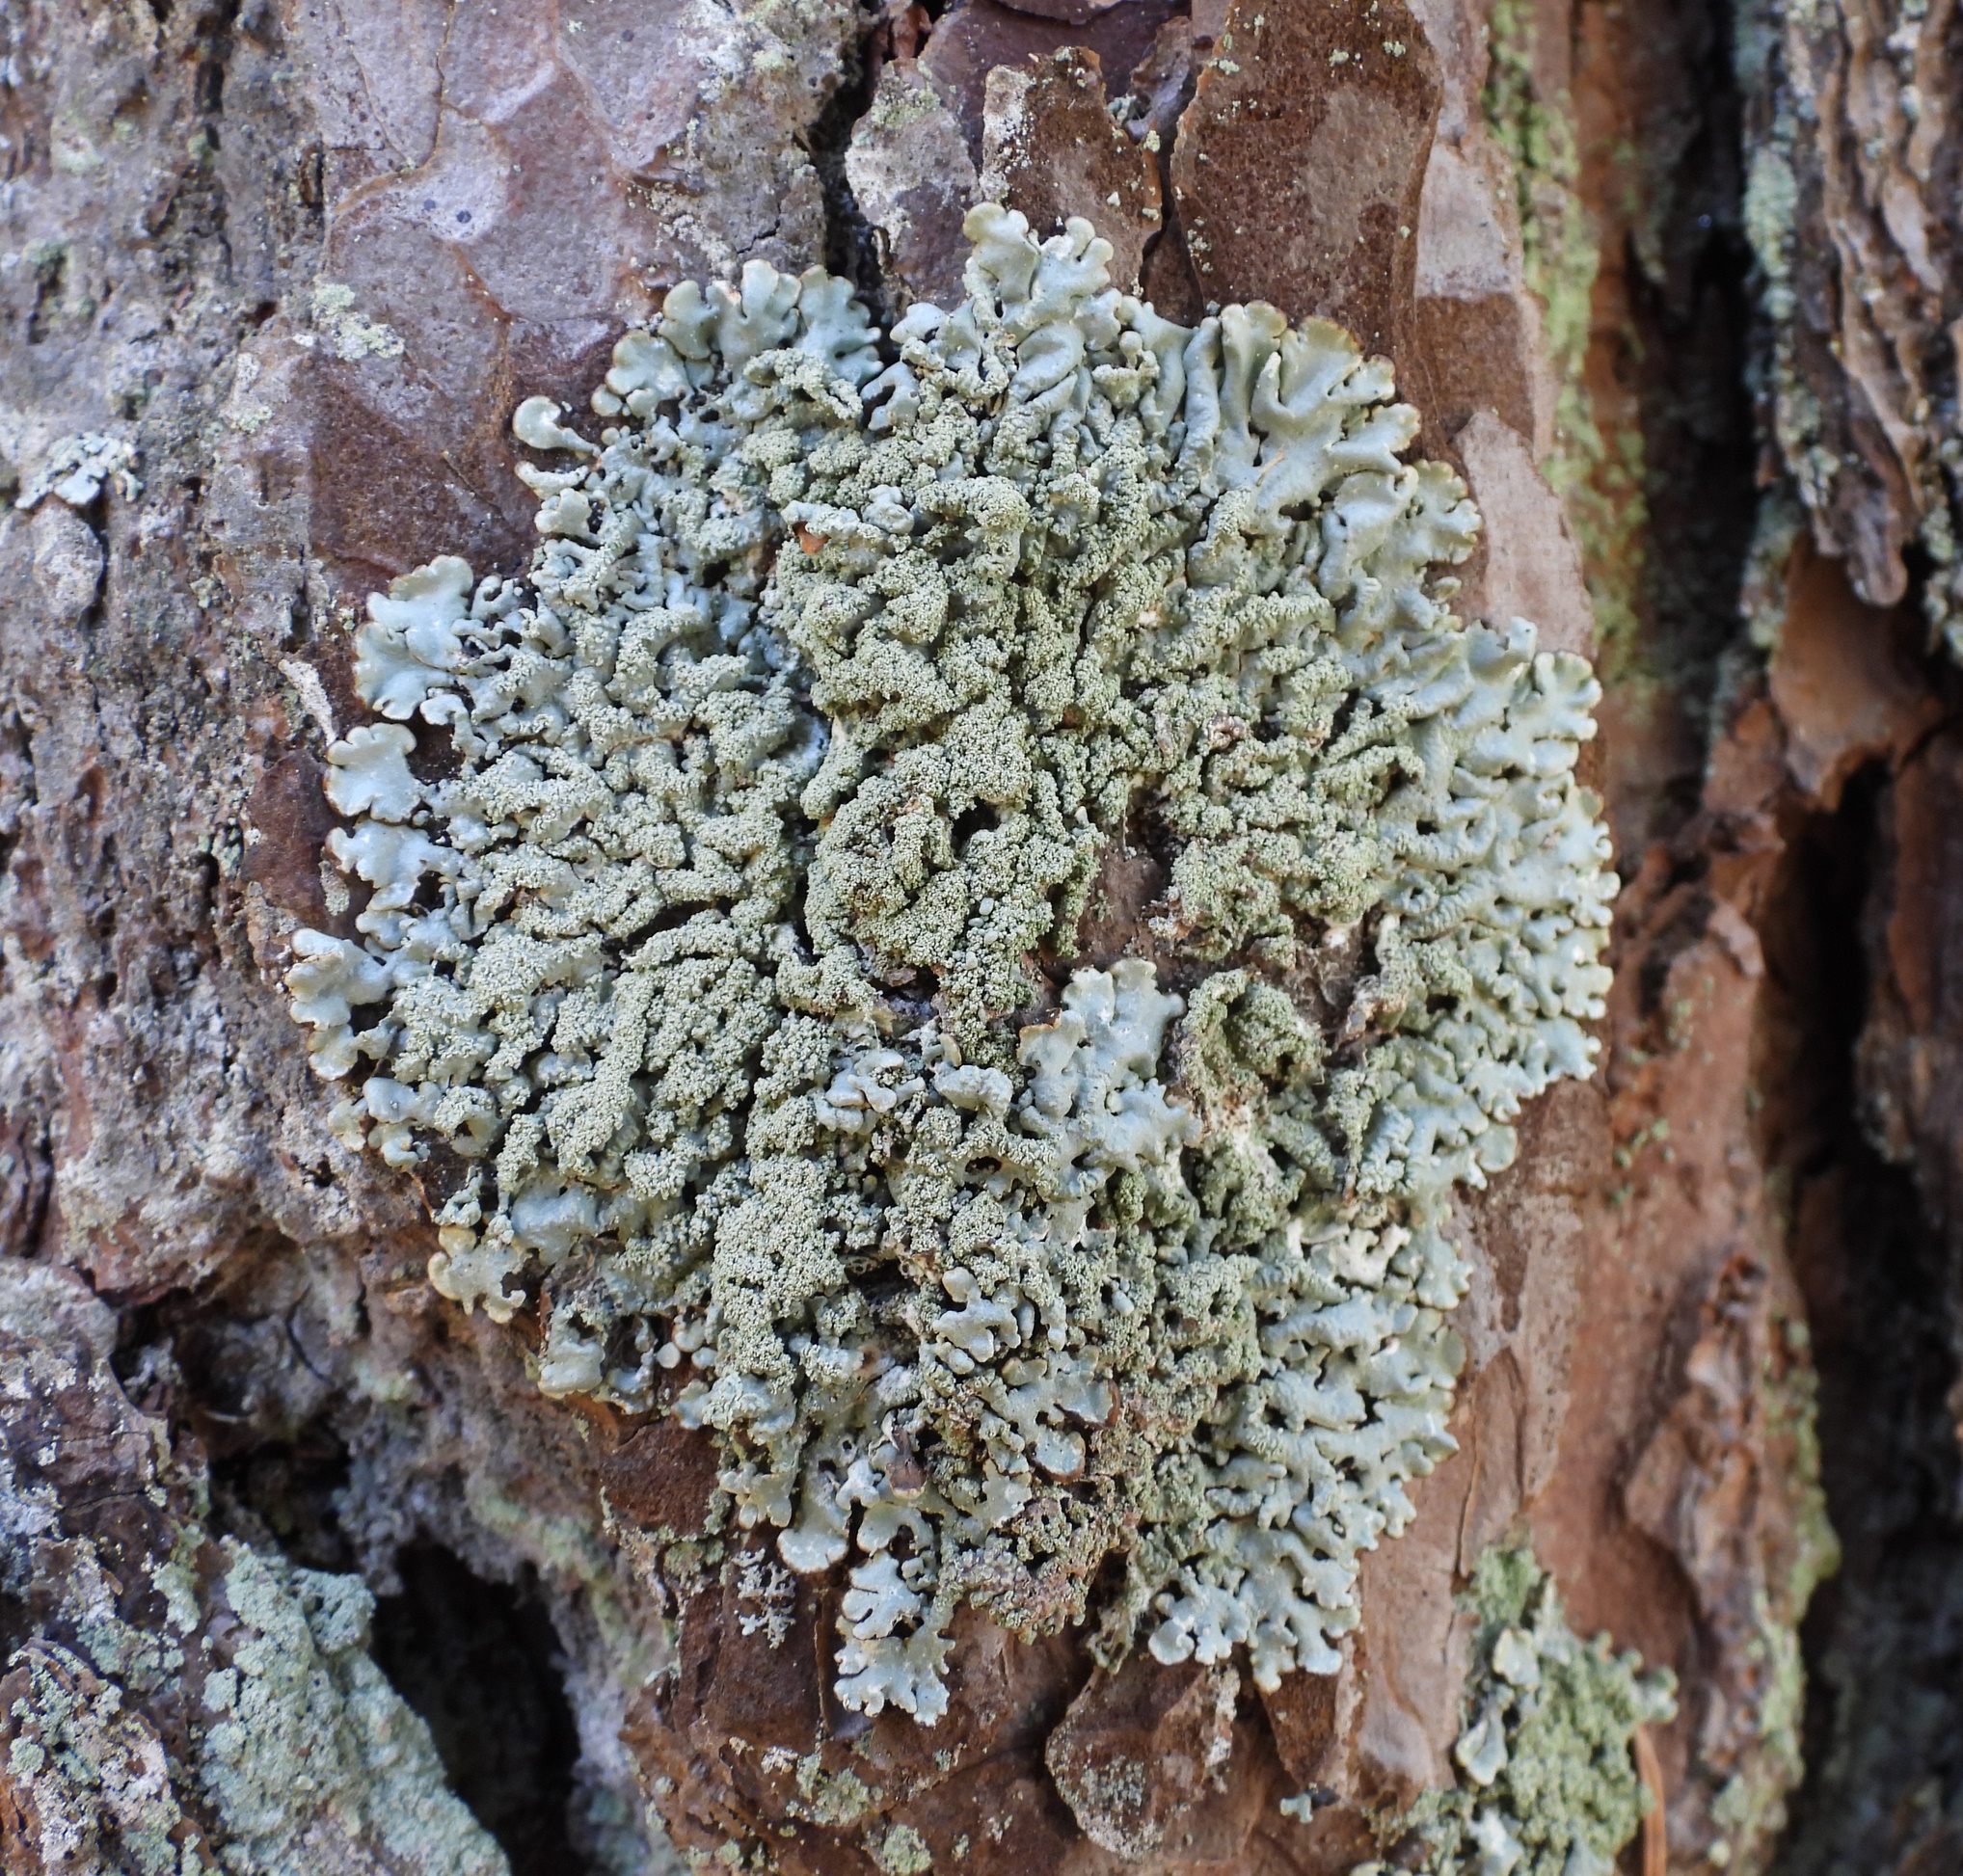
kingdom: Fungi
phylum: Ascomycota
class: Lecanoromycetes
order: Lecanorales
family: Parmeliaceae
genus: Hypogymnia
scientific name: Hypogymnia farinacea
